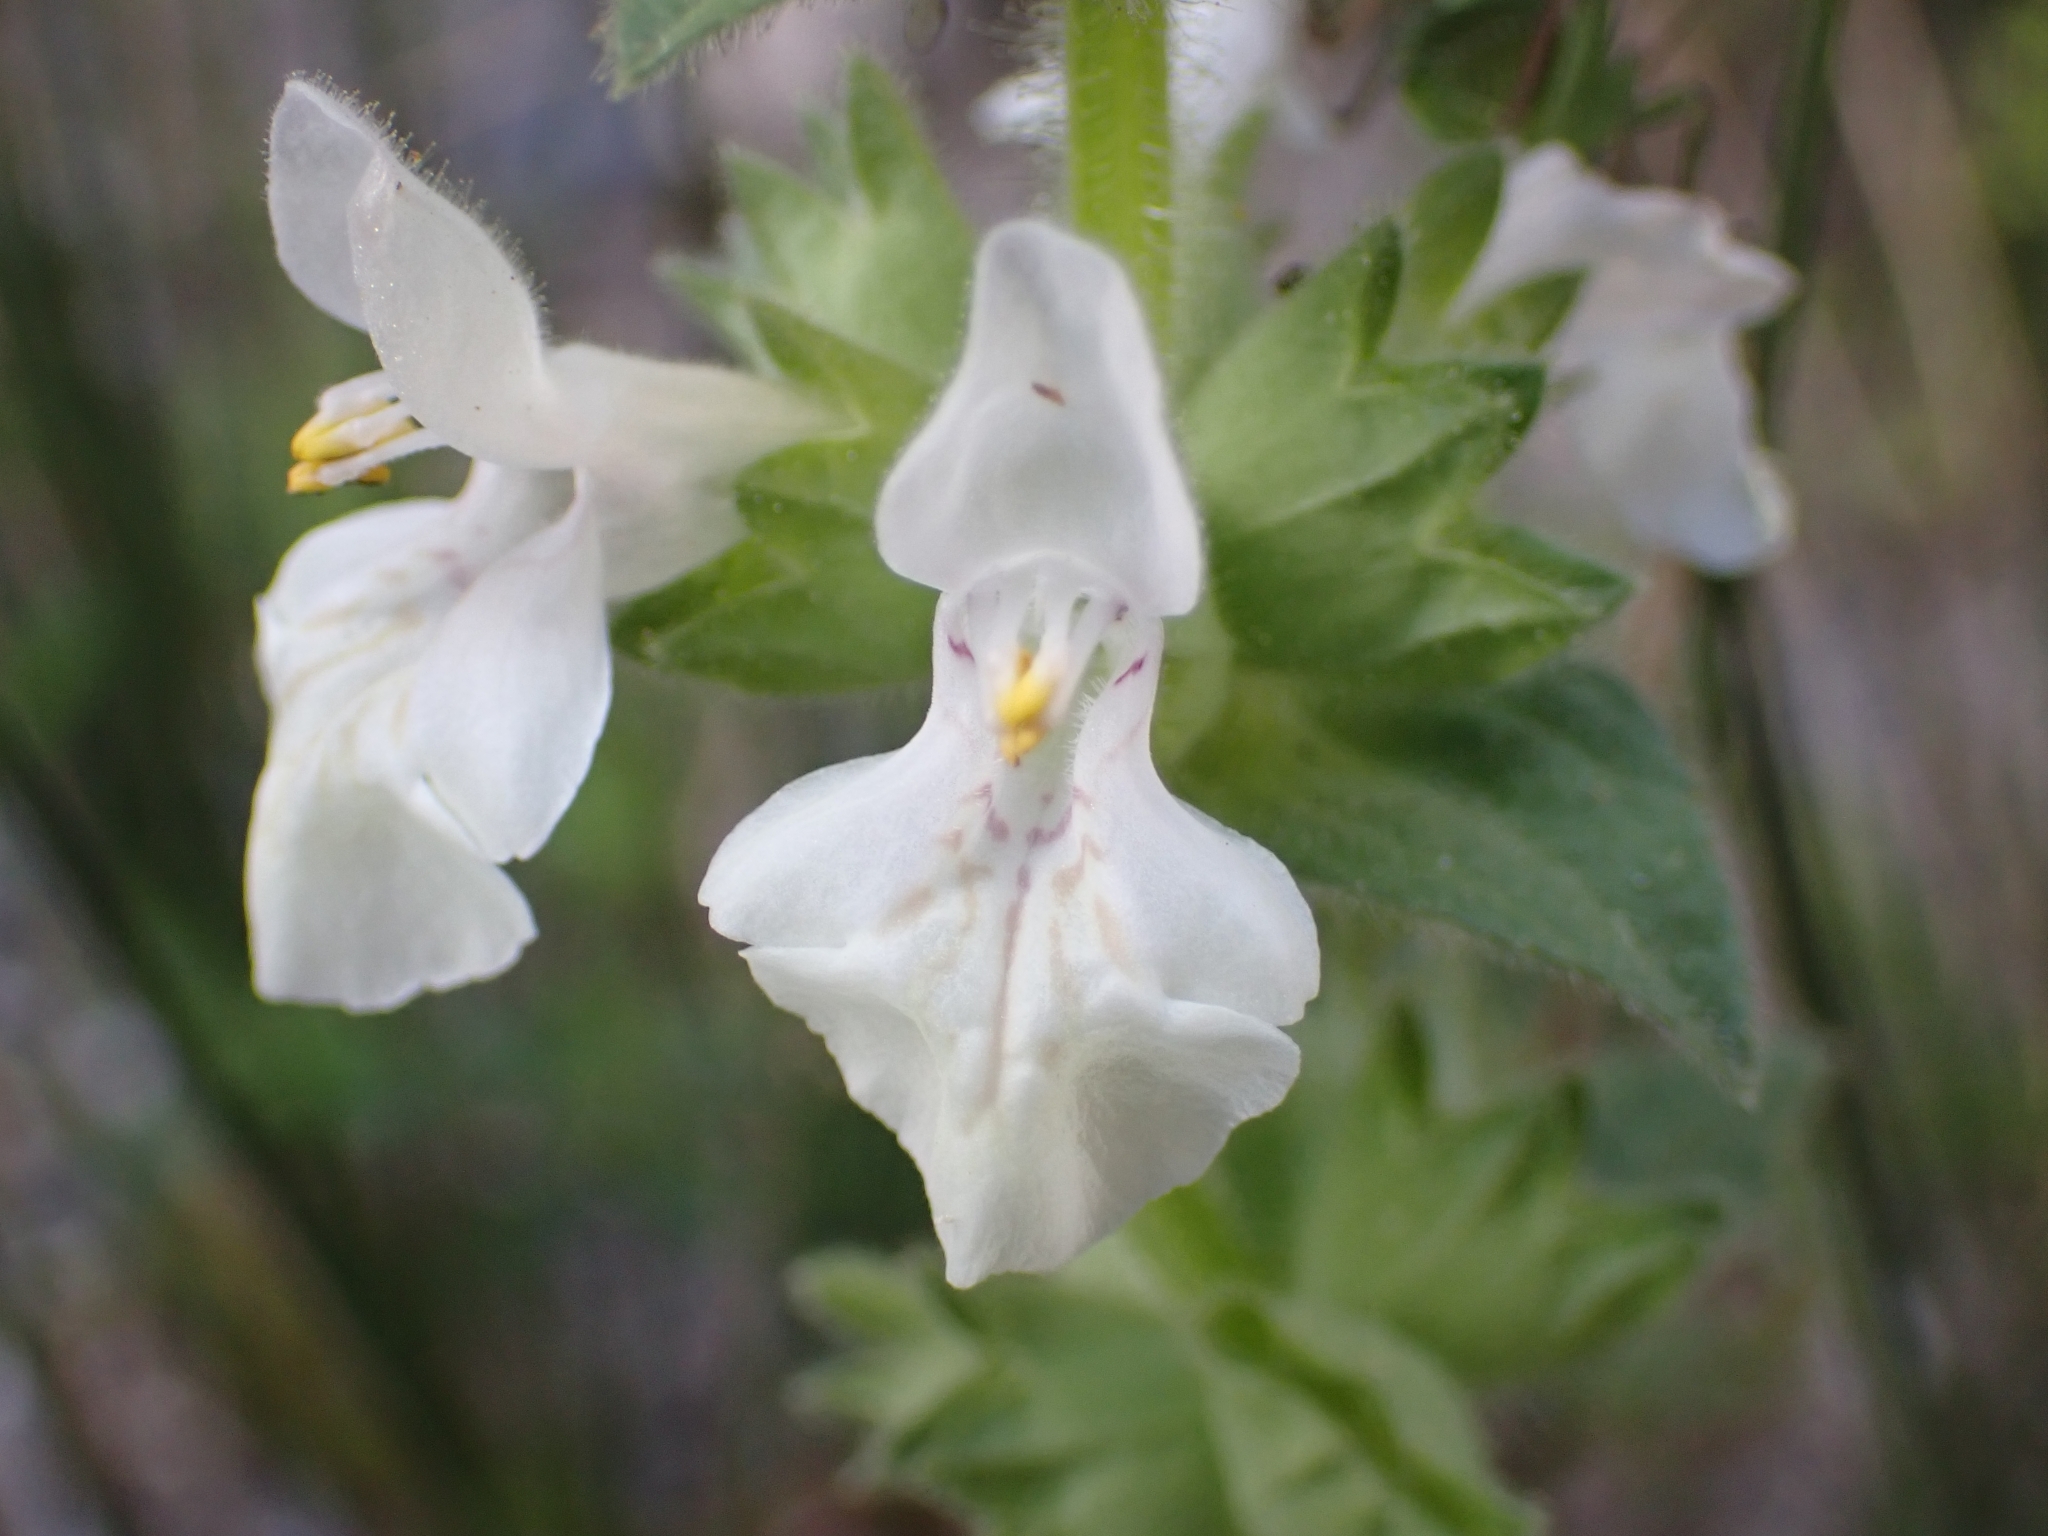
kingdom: Plantae
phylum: Tracheophyta
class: Magnoliopsida
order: Lamiales
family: Lamiaceae
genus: Prasium
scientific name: Prasium majus
